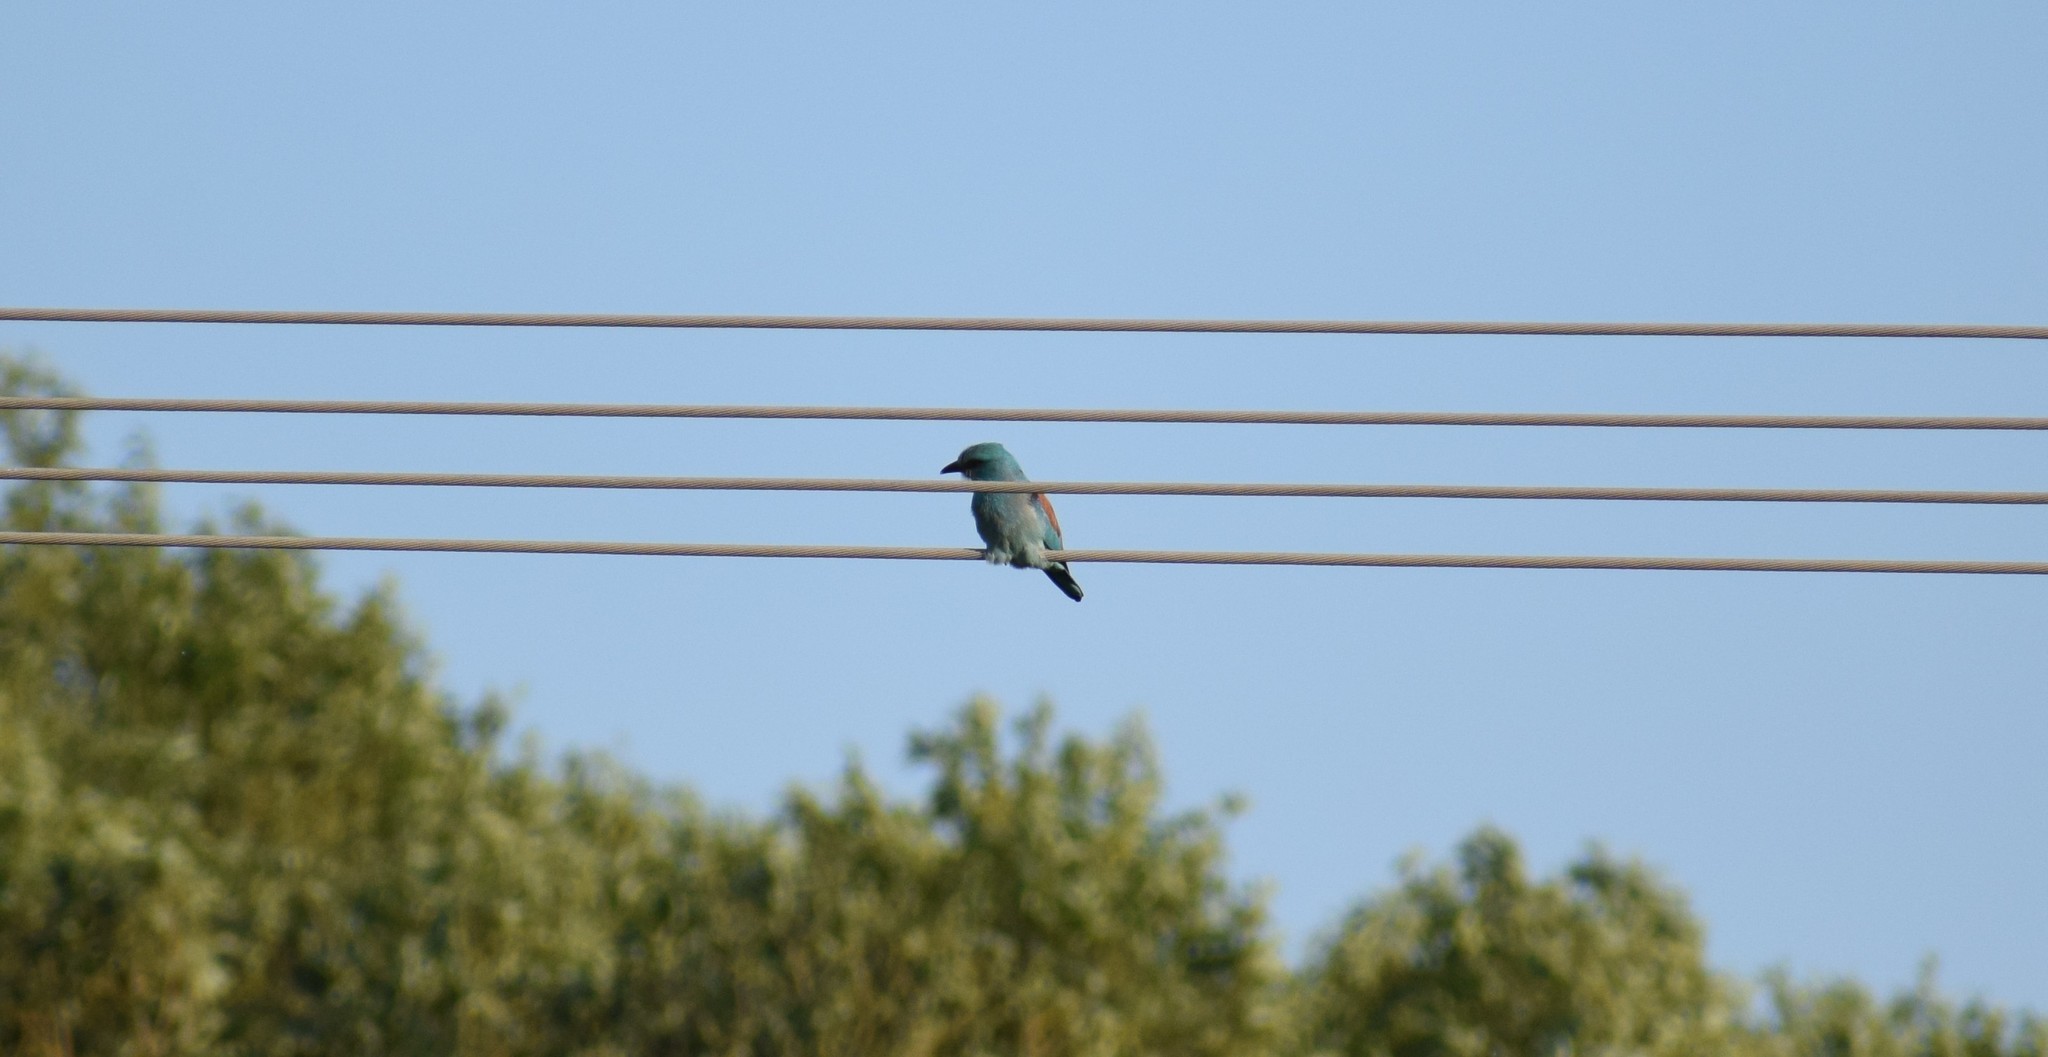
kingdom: Animalia
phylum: Chordata
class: Aves
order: Coraciiformes
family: Coraciidae
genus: Coracias
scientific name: Coracias garrulus
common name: European roller
